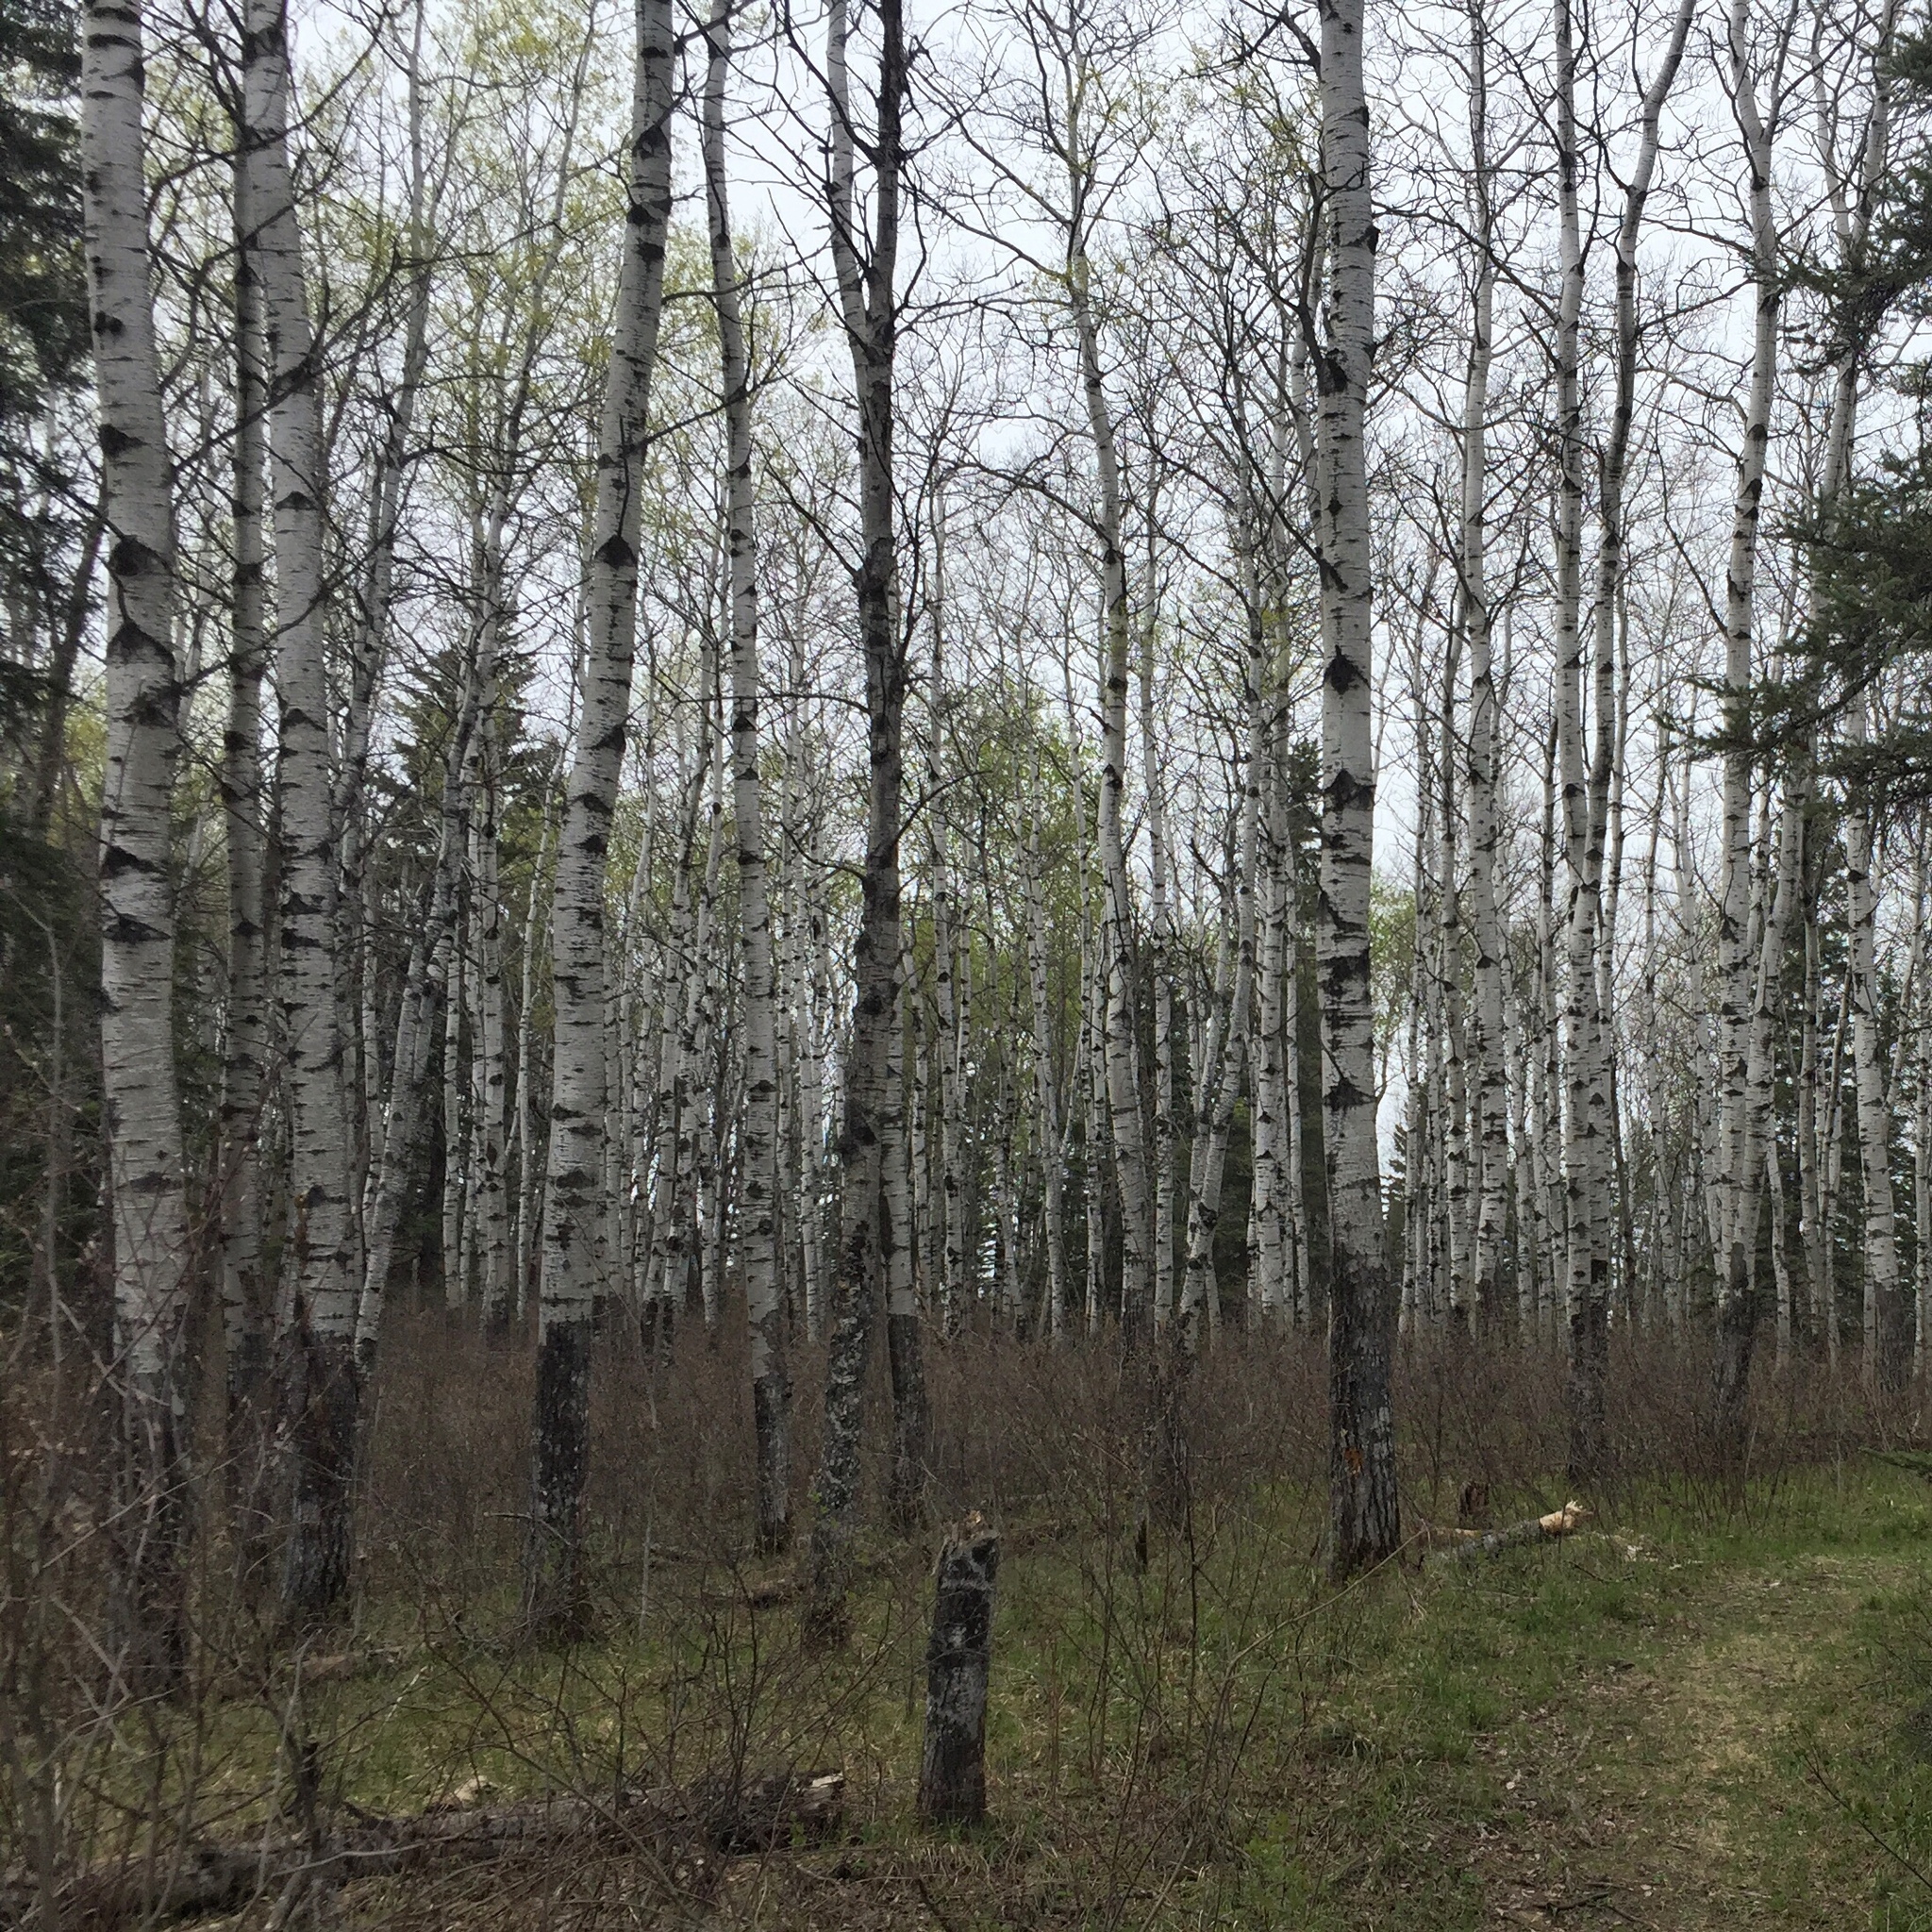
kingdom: Plantae
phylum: Tracheophyta
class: Magnoliopsida
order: Malpighiales
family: Salicaceae
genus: Populus
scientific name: Populus tremuloides
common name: Quaking aspen
